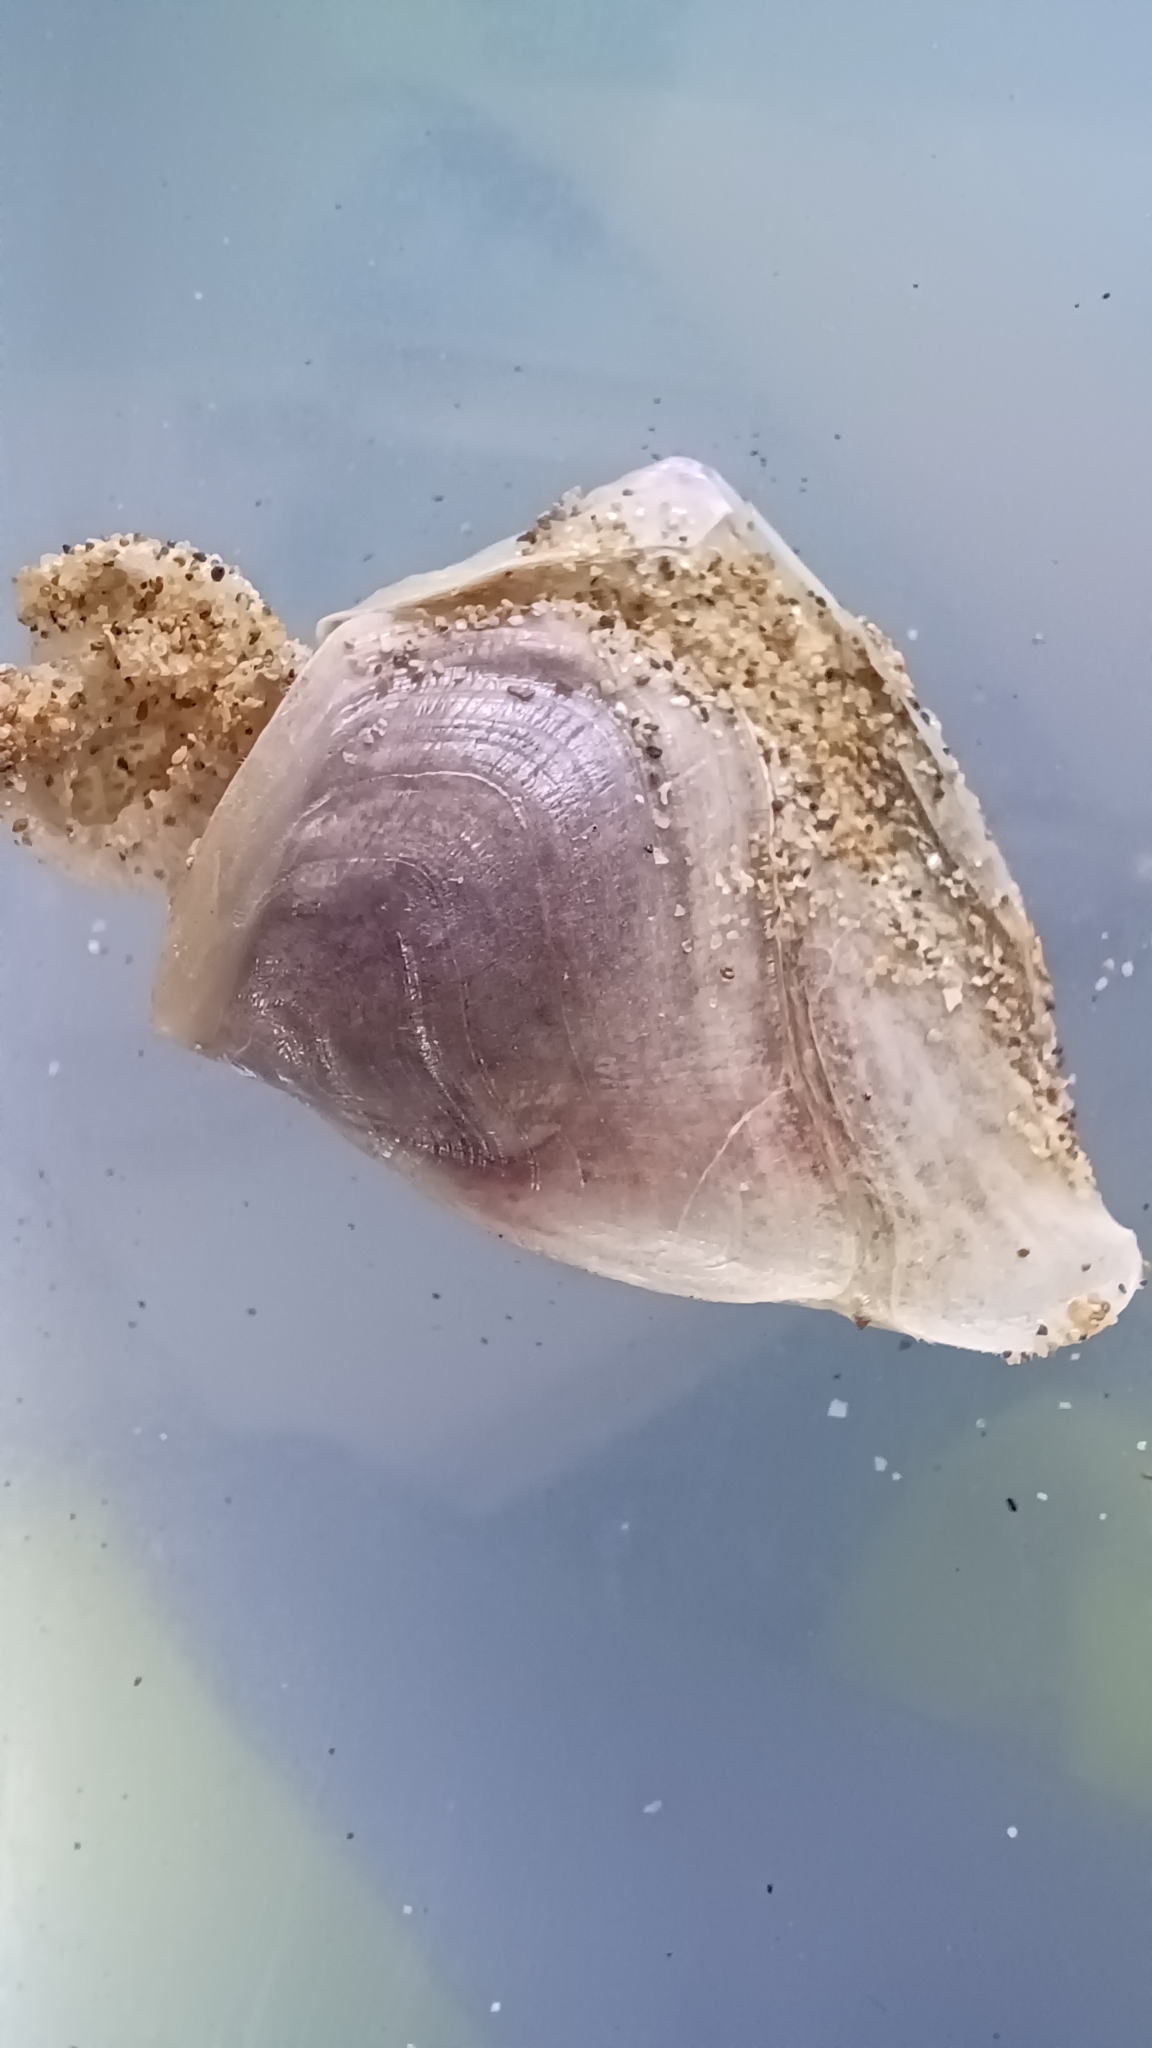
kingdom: Animalia
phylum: Arthropoda
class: Maxillopoda
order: Pedunculata
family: Lepadidae
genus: Dosima
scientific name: Dosima fascicularis
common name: Buoy barnacle
